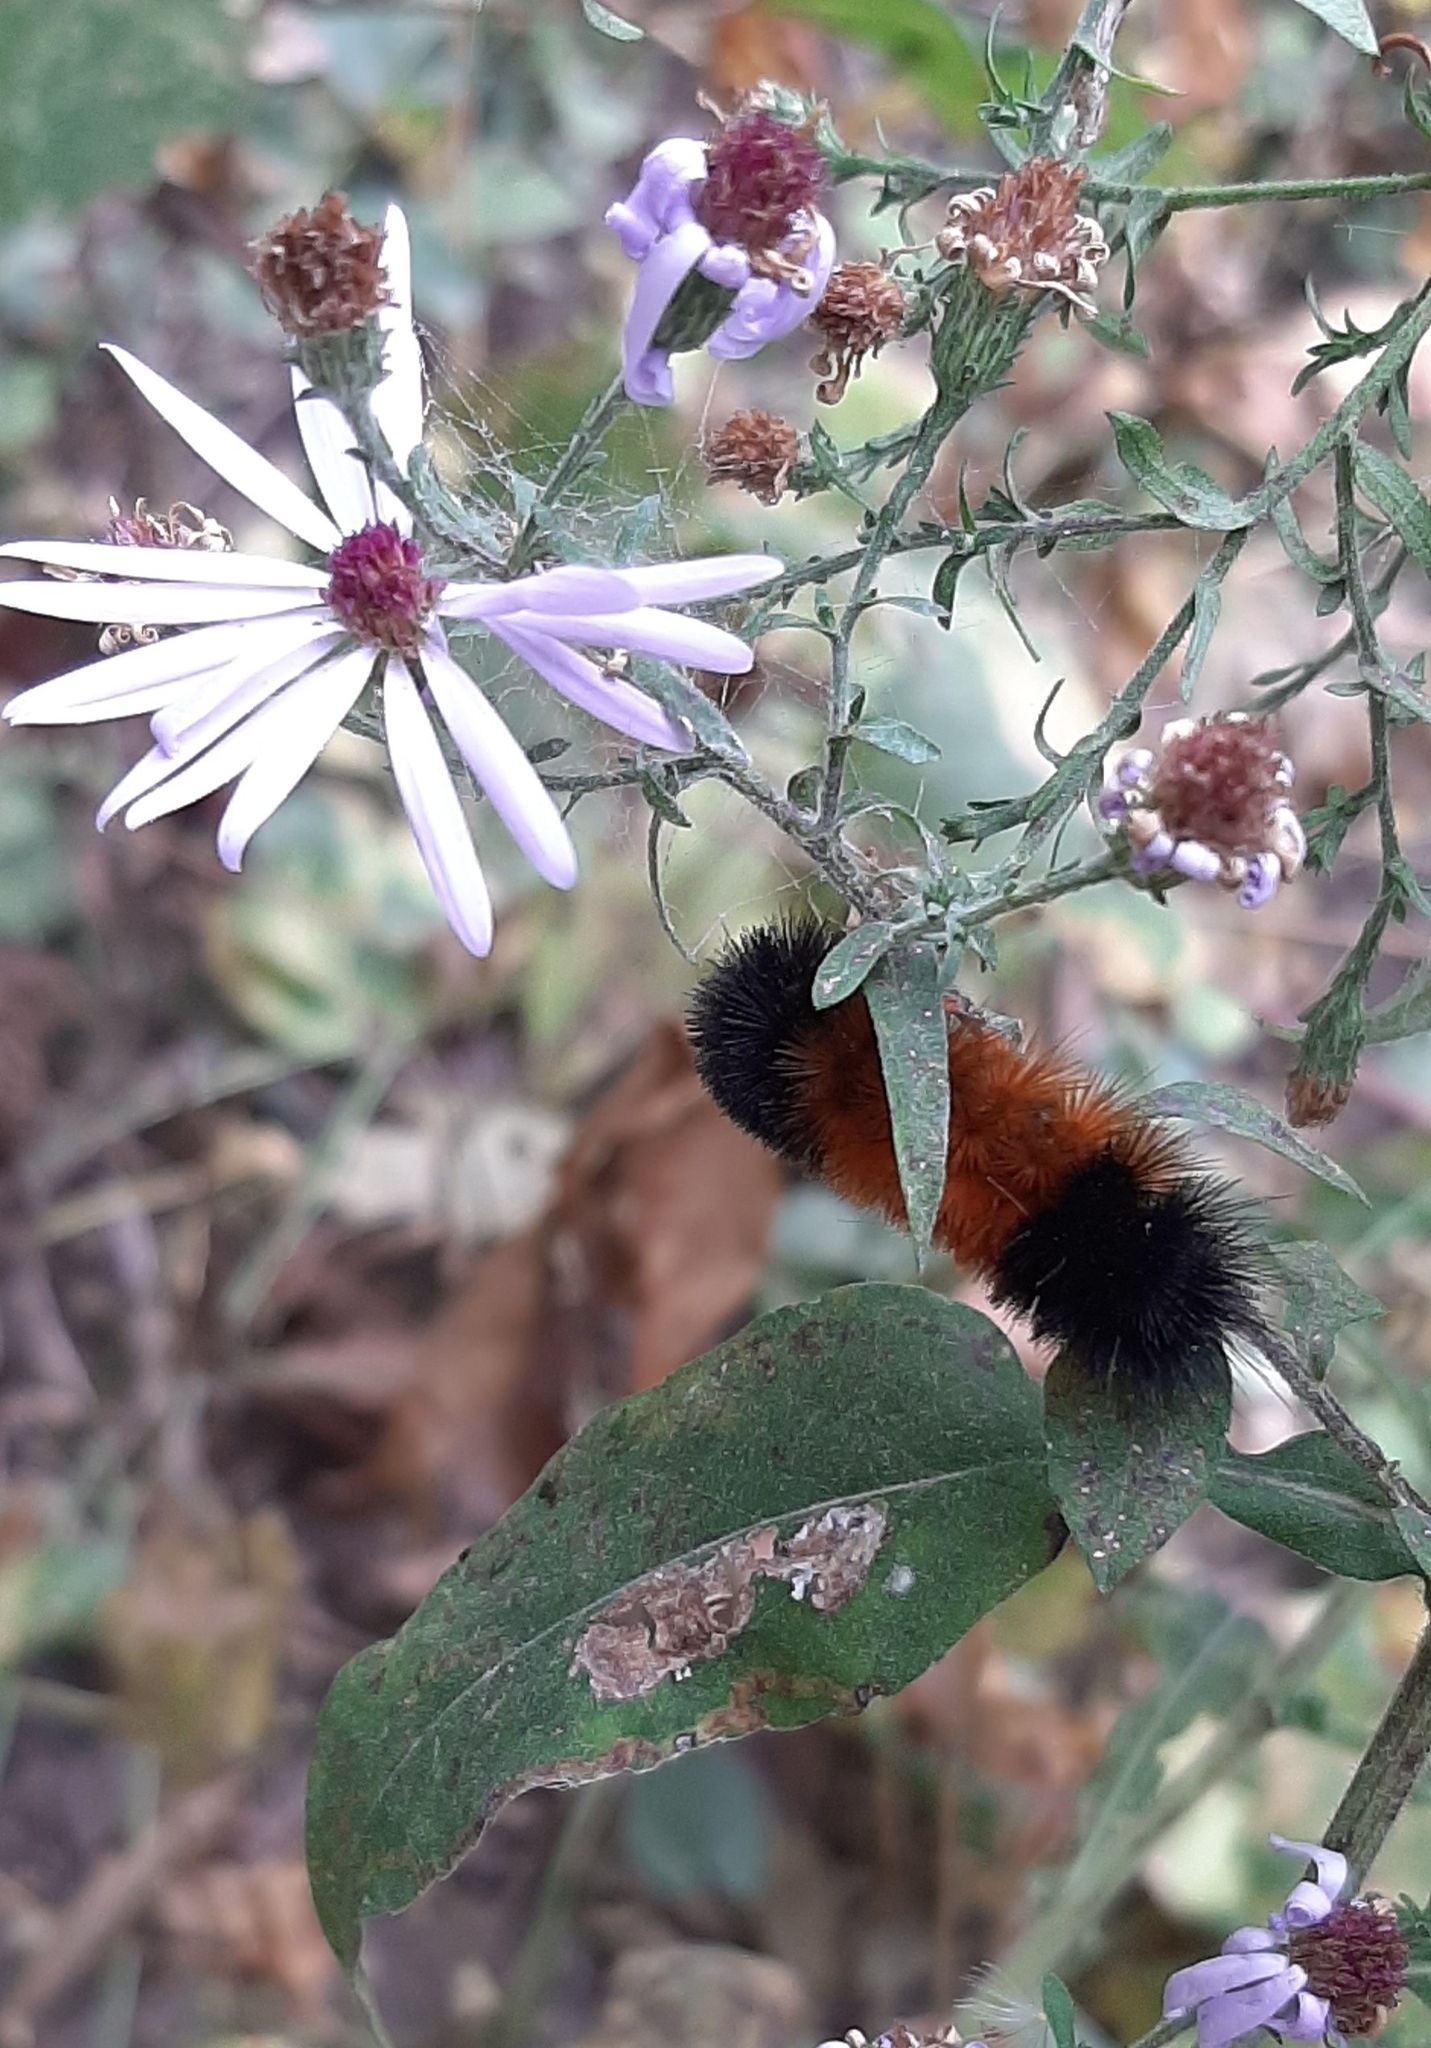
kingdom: Animalia
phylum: Arthropoda
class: Insecta
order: Lepidoptera
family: Erebidae
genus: Pyrrharctia
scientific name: Pyrrharctia isabella
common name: Isabella tiger moth
